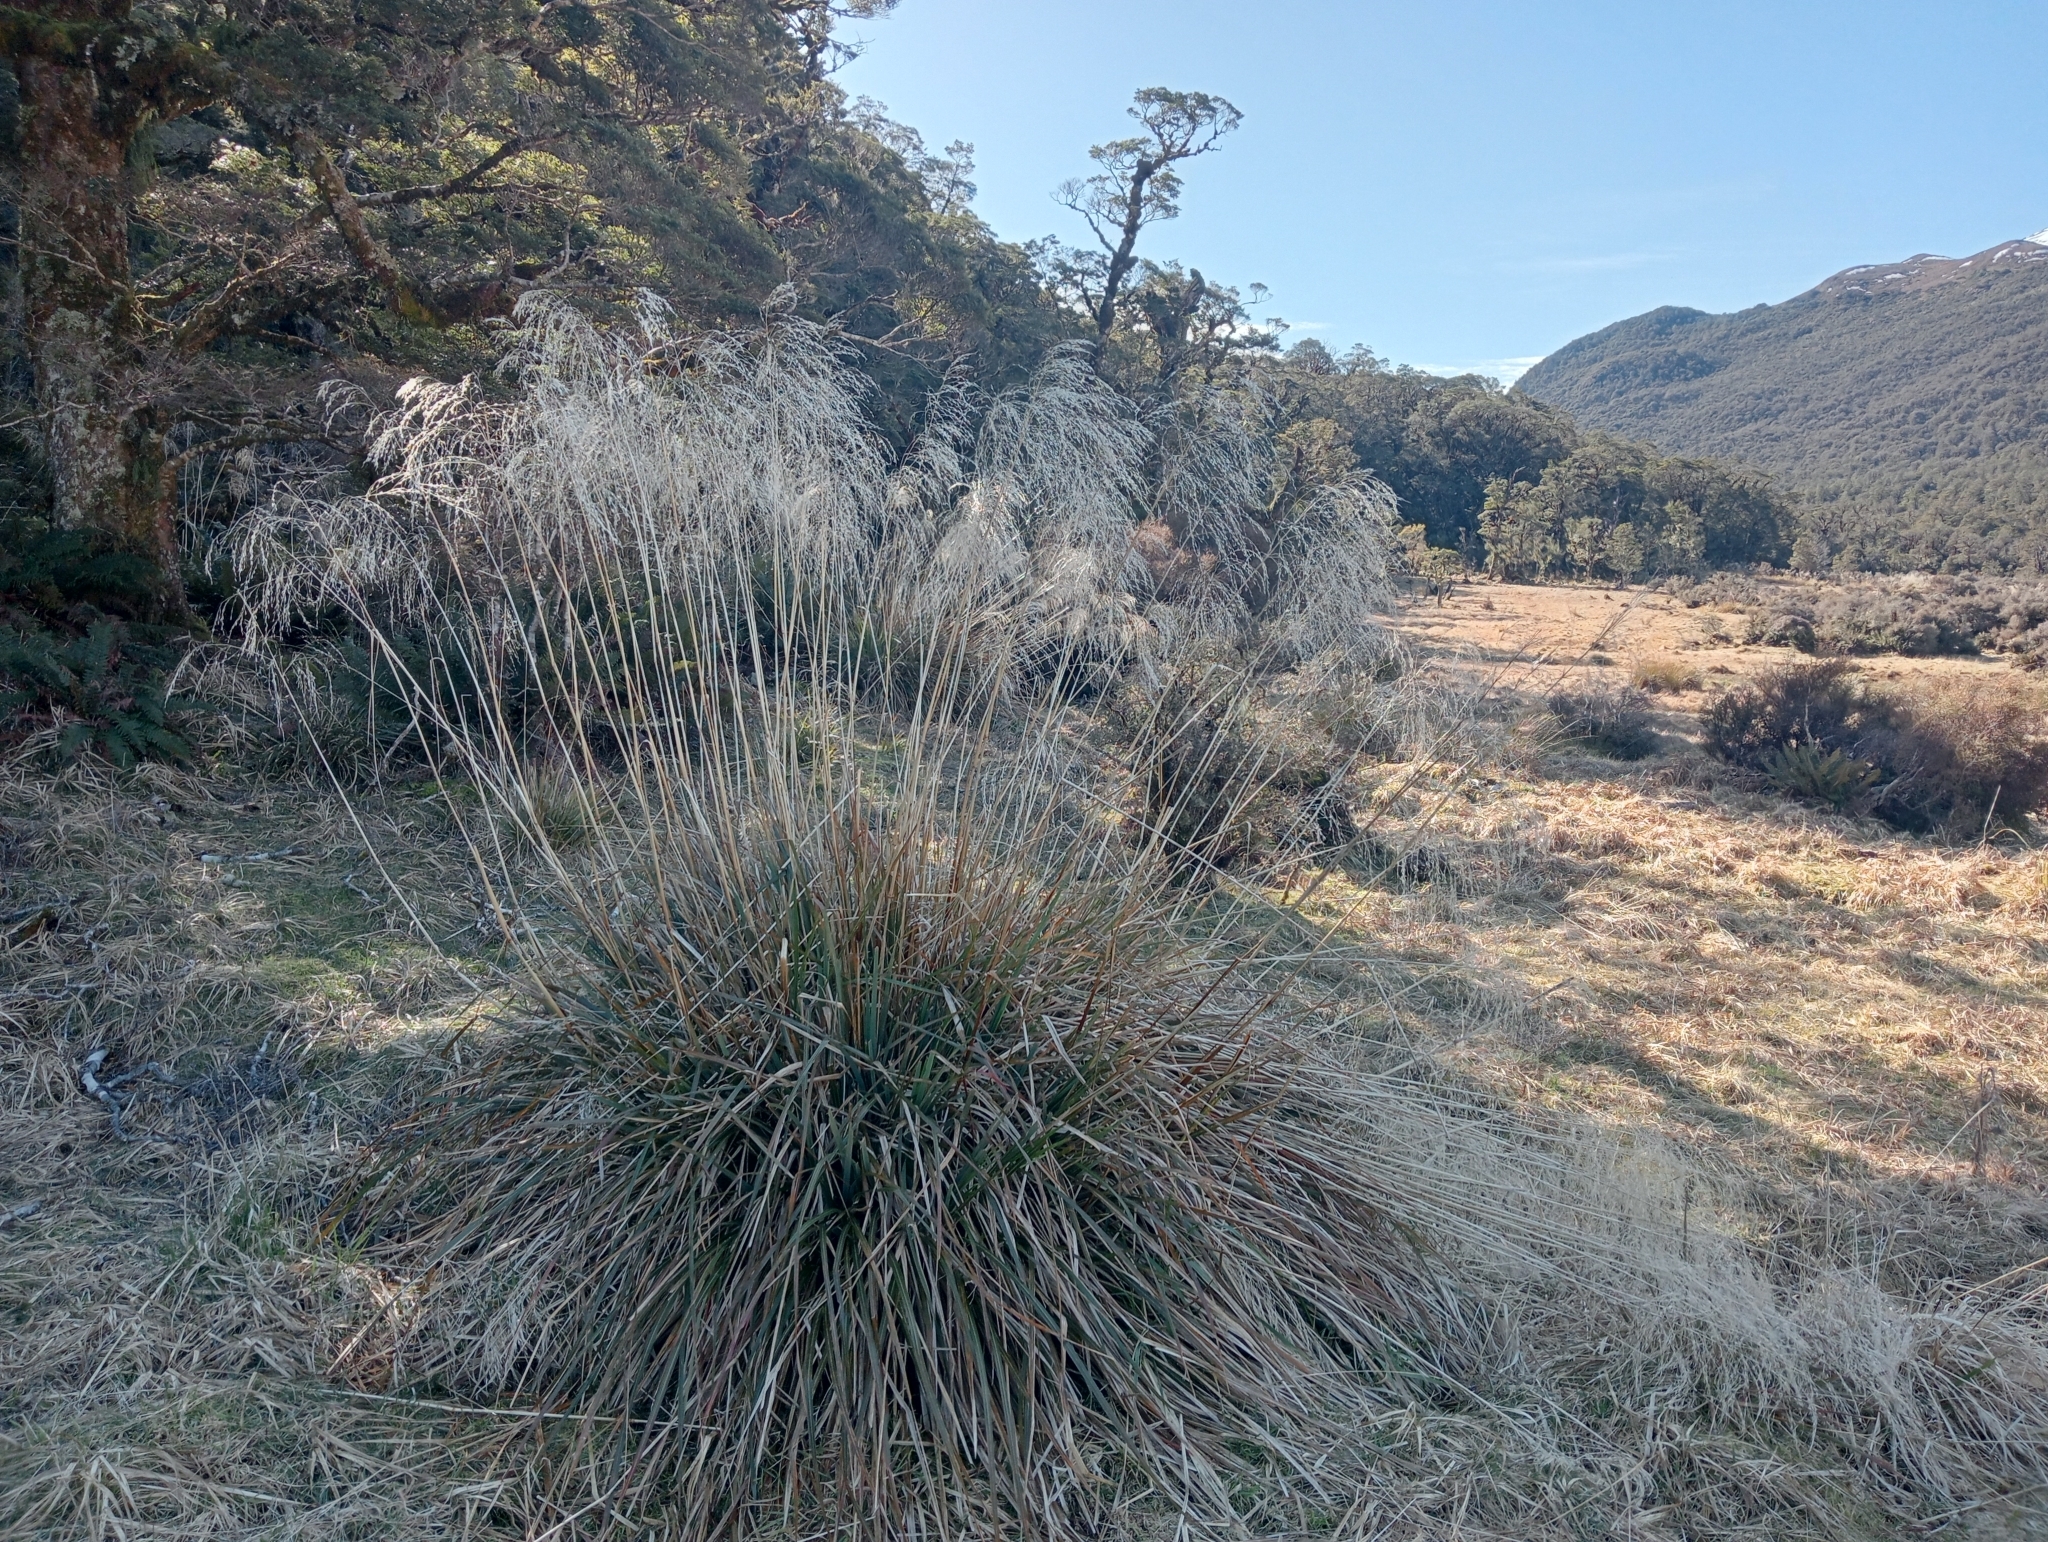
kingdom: Plantae
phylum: Tracheophyta
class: Liliopsida
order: Poales
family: Poaceae
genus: Chionochloa
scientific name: Chionochloa conspicua
